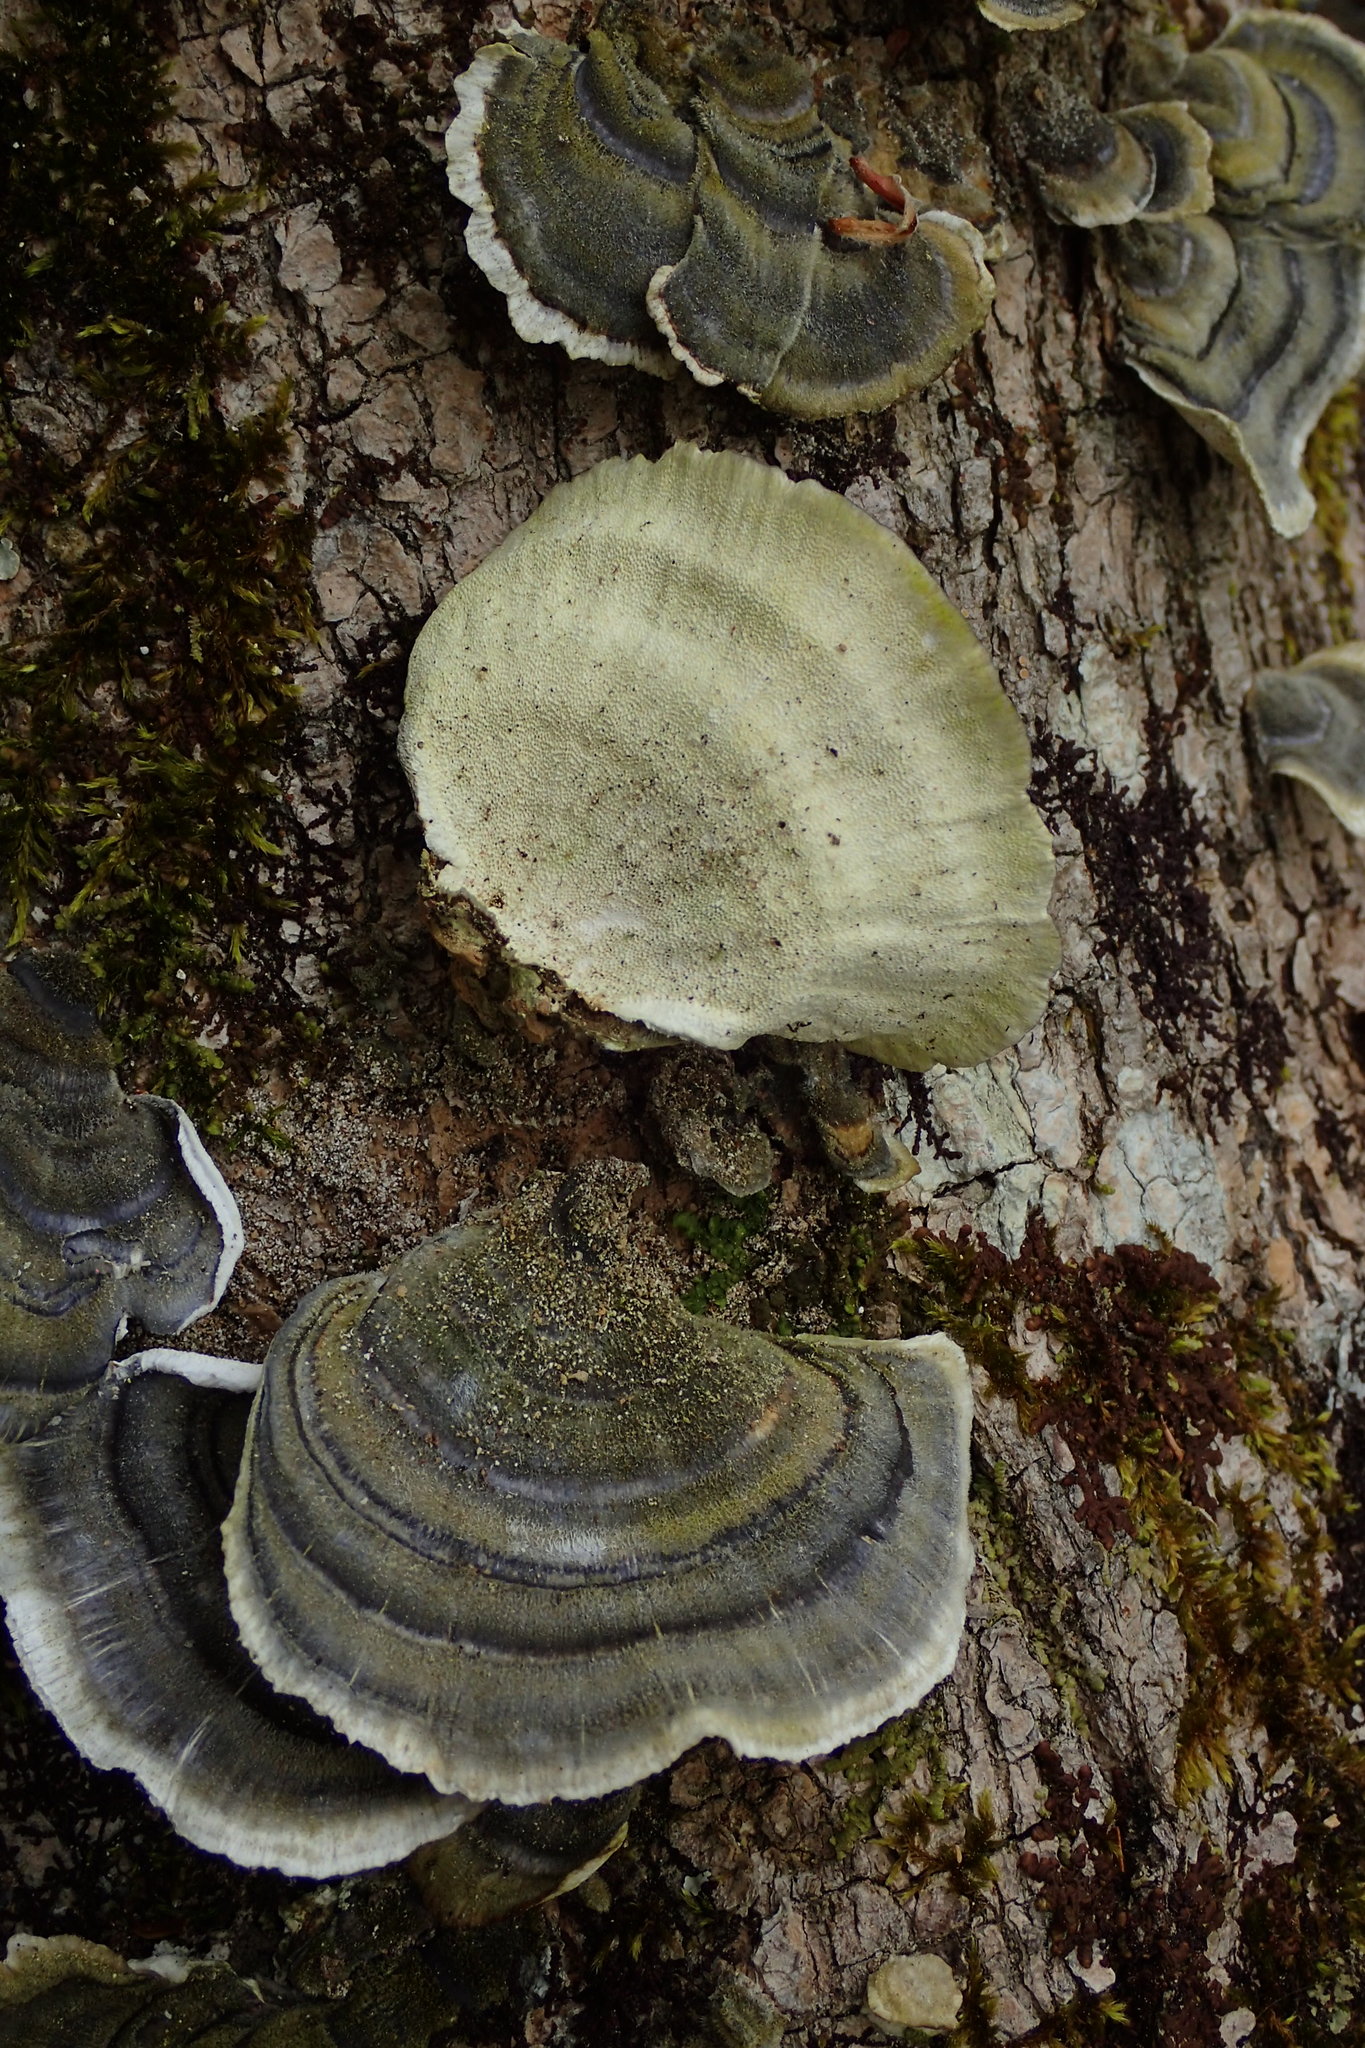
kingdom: Fungi
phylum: Basidiomycota
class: Agaricomycetes
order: Polyporales
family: Polyporaceae
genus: Trametes
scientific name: Trametes versicolor
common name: Turkeytail
